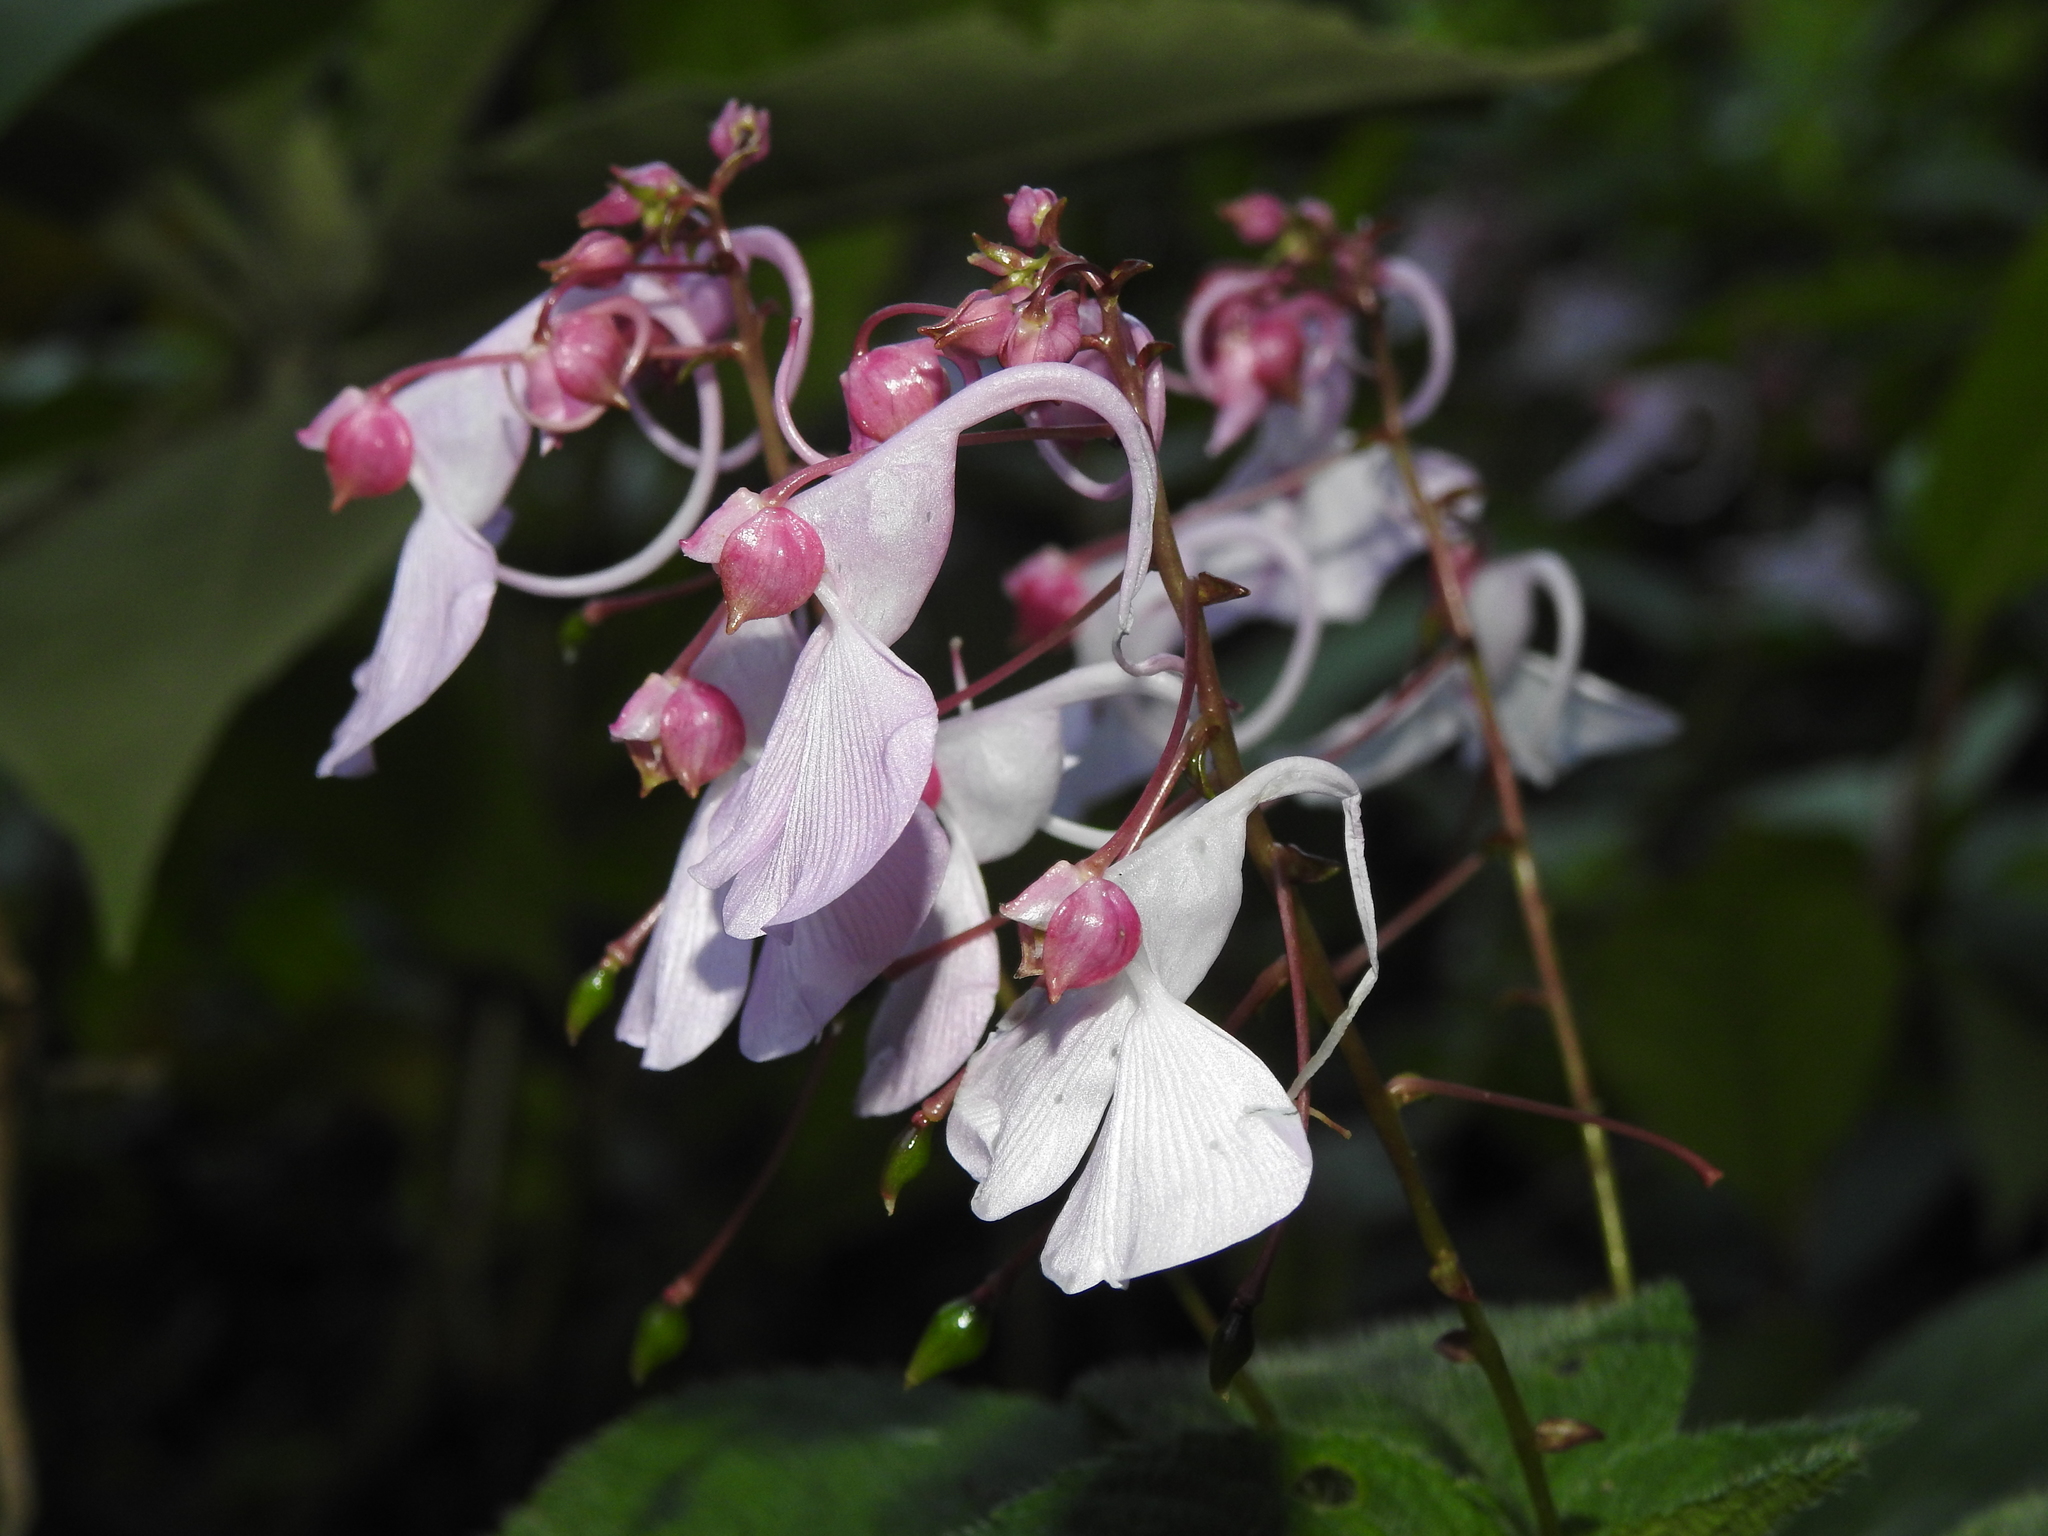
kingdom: Plantae
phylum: Tracheophyta
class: Magnoliopsida
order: Ericales
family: Balsaminaceae
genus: Impatiens
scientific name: Impatiens maculata
